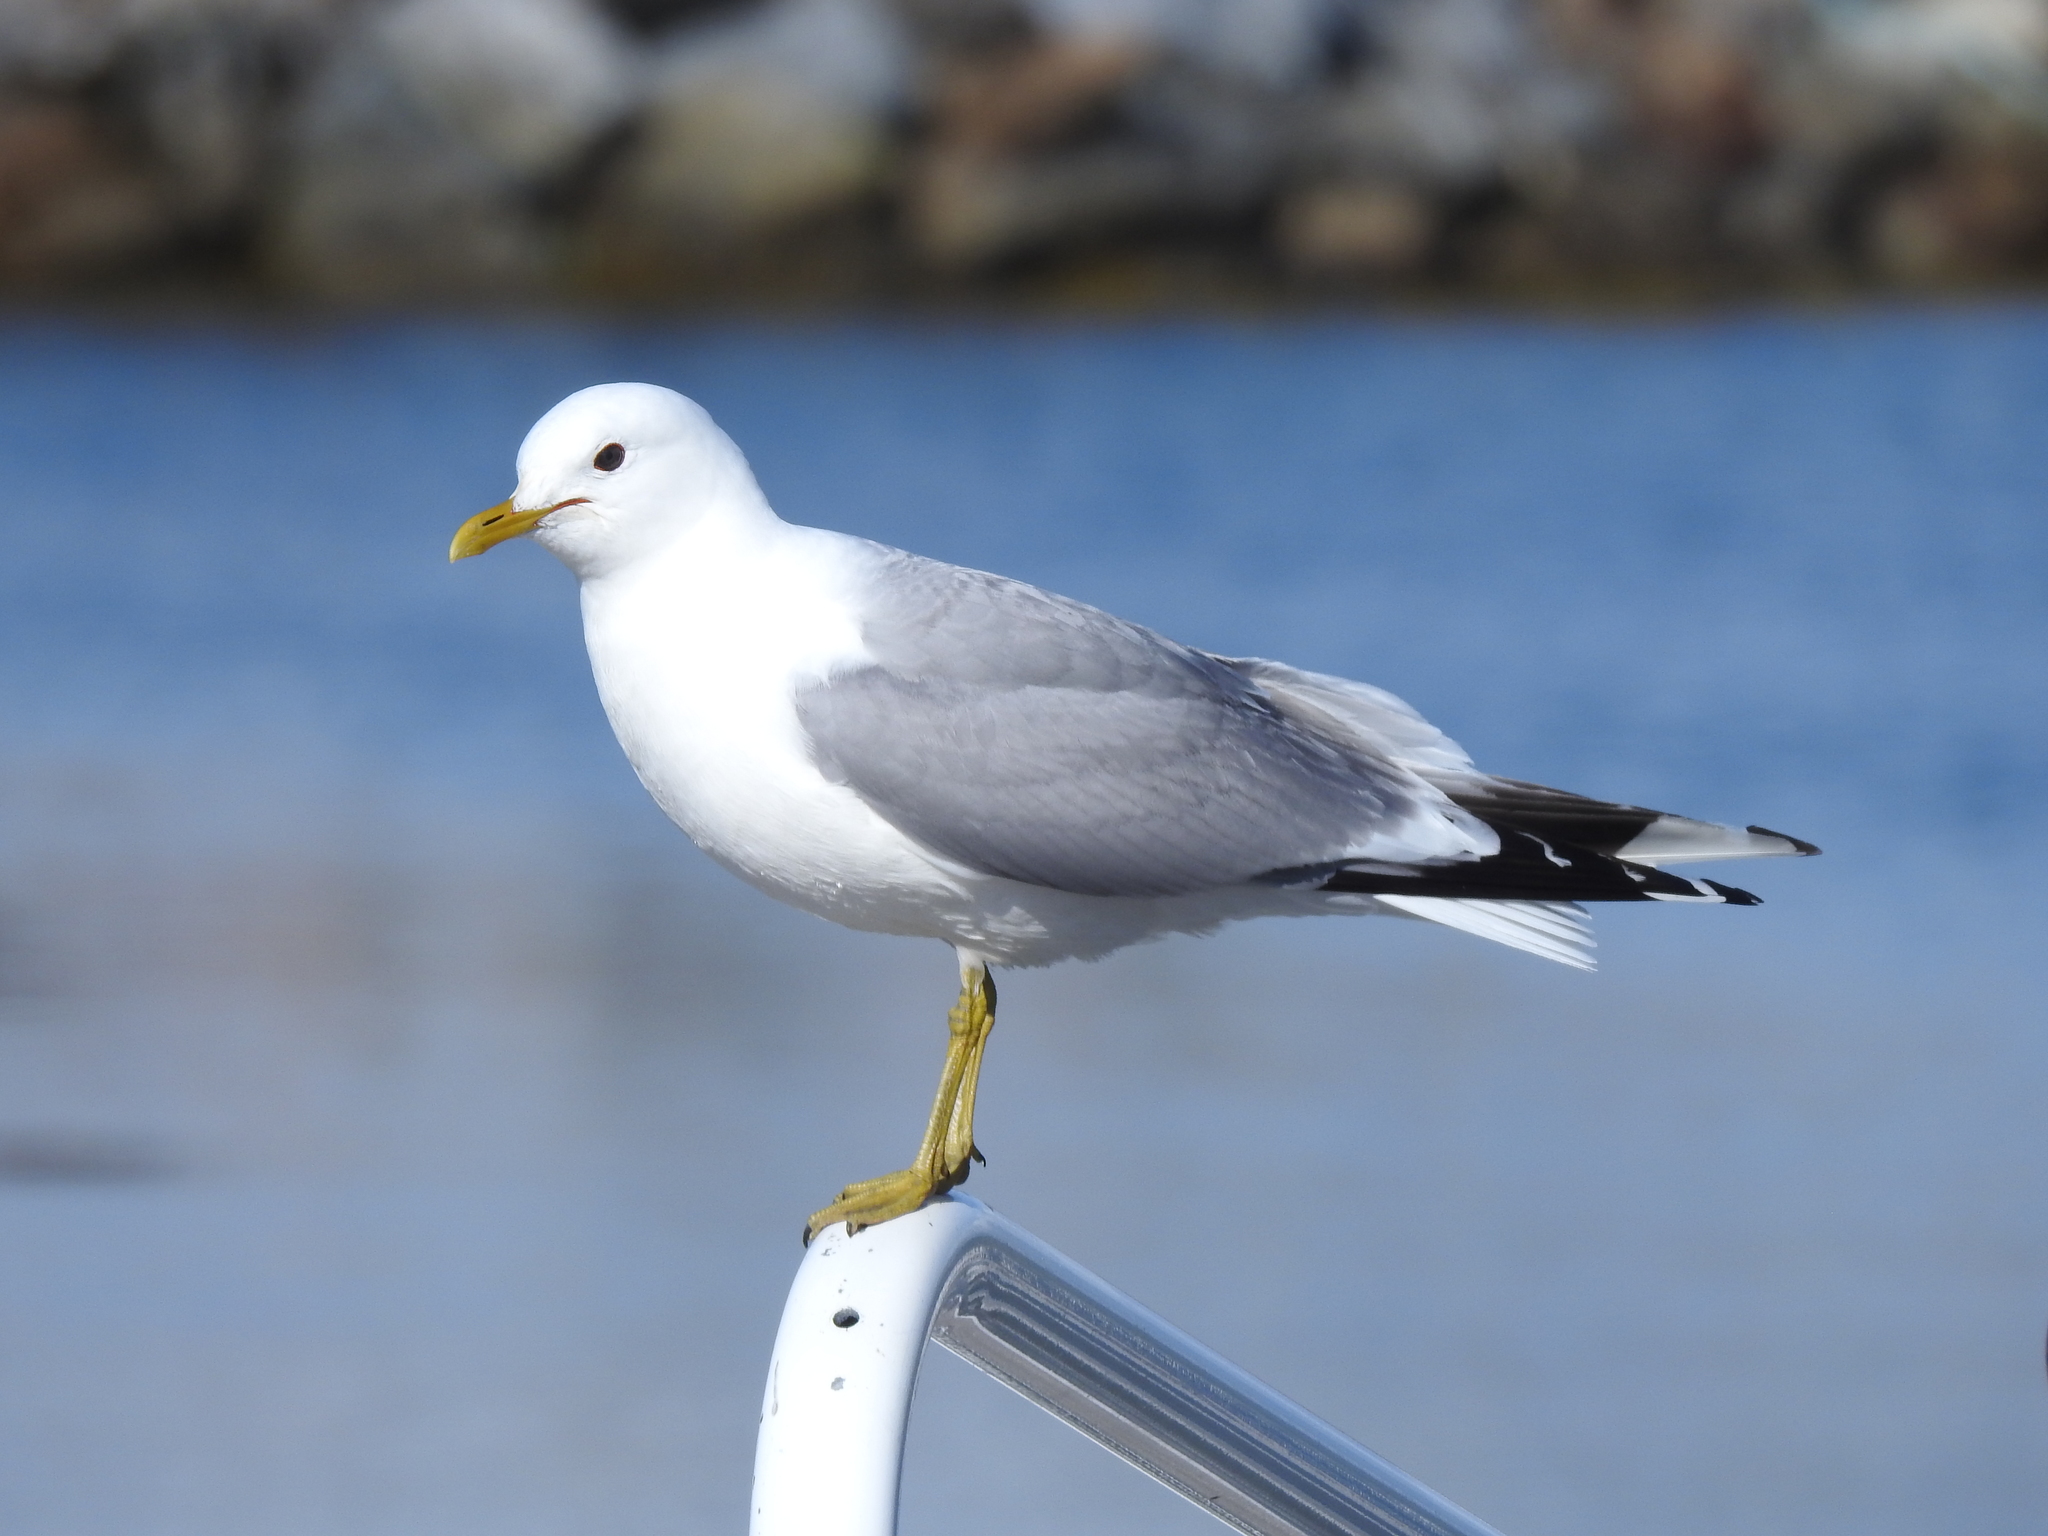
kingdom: Animalia
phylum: Chordata
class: Aves
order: Charadriiformes
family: Laridae
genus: Larus
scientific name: Larus canus
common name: Mew gull
